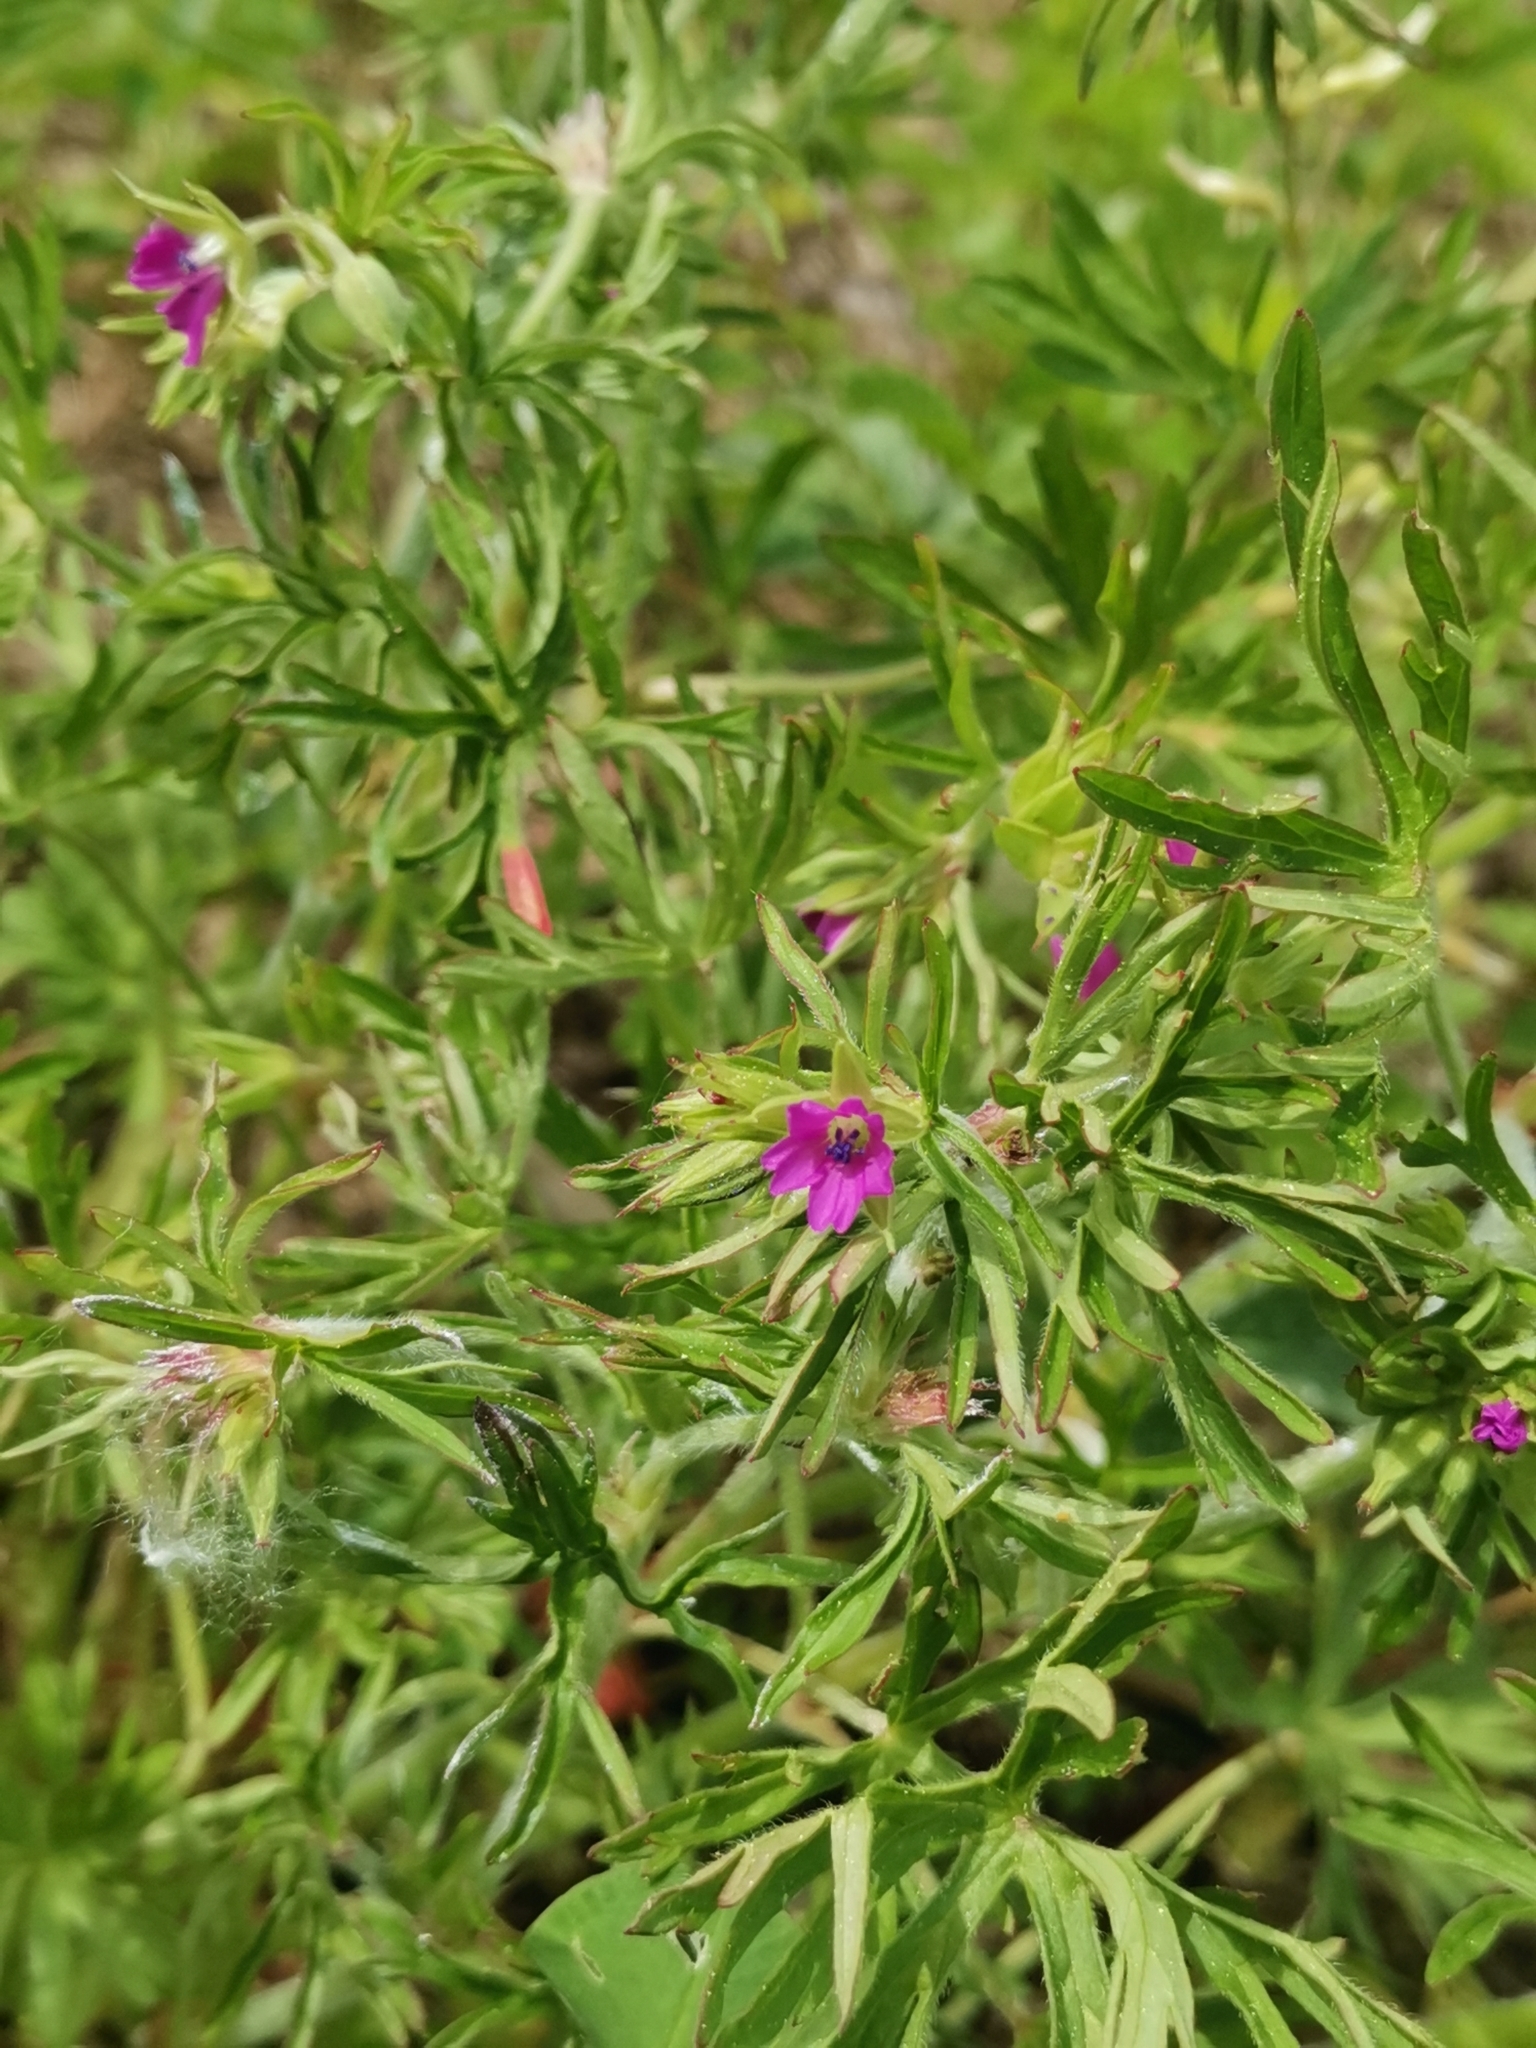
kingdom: Plantae
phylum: Tracheophyta
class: Magnoliopsida
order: Geraniales
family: Geraniaceae
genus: Geranium
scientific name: Geranium dissectum
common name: Cut-leaved crane's-bill
